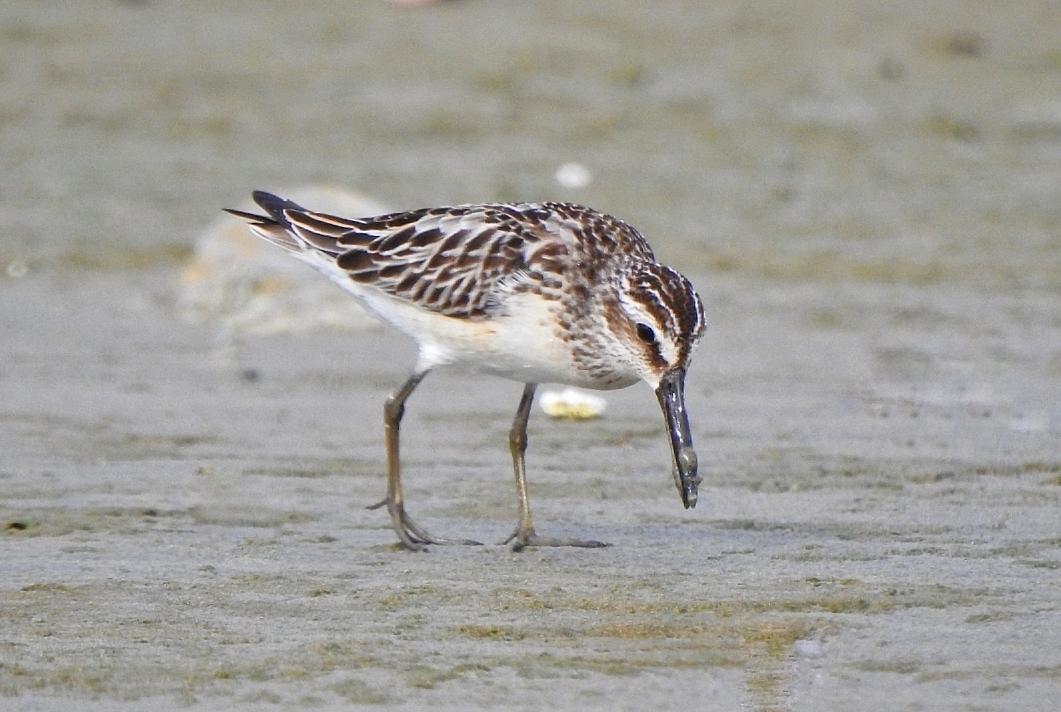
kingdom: Animalia
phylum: Chordata
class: Aves
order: Charadriiformes
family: Scolopacidae
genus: Calidris
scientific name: Calidris falcinellus
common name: Broad-billed sandpiper
